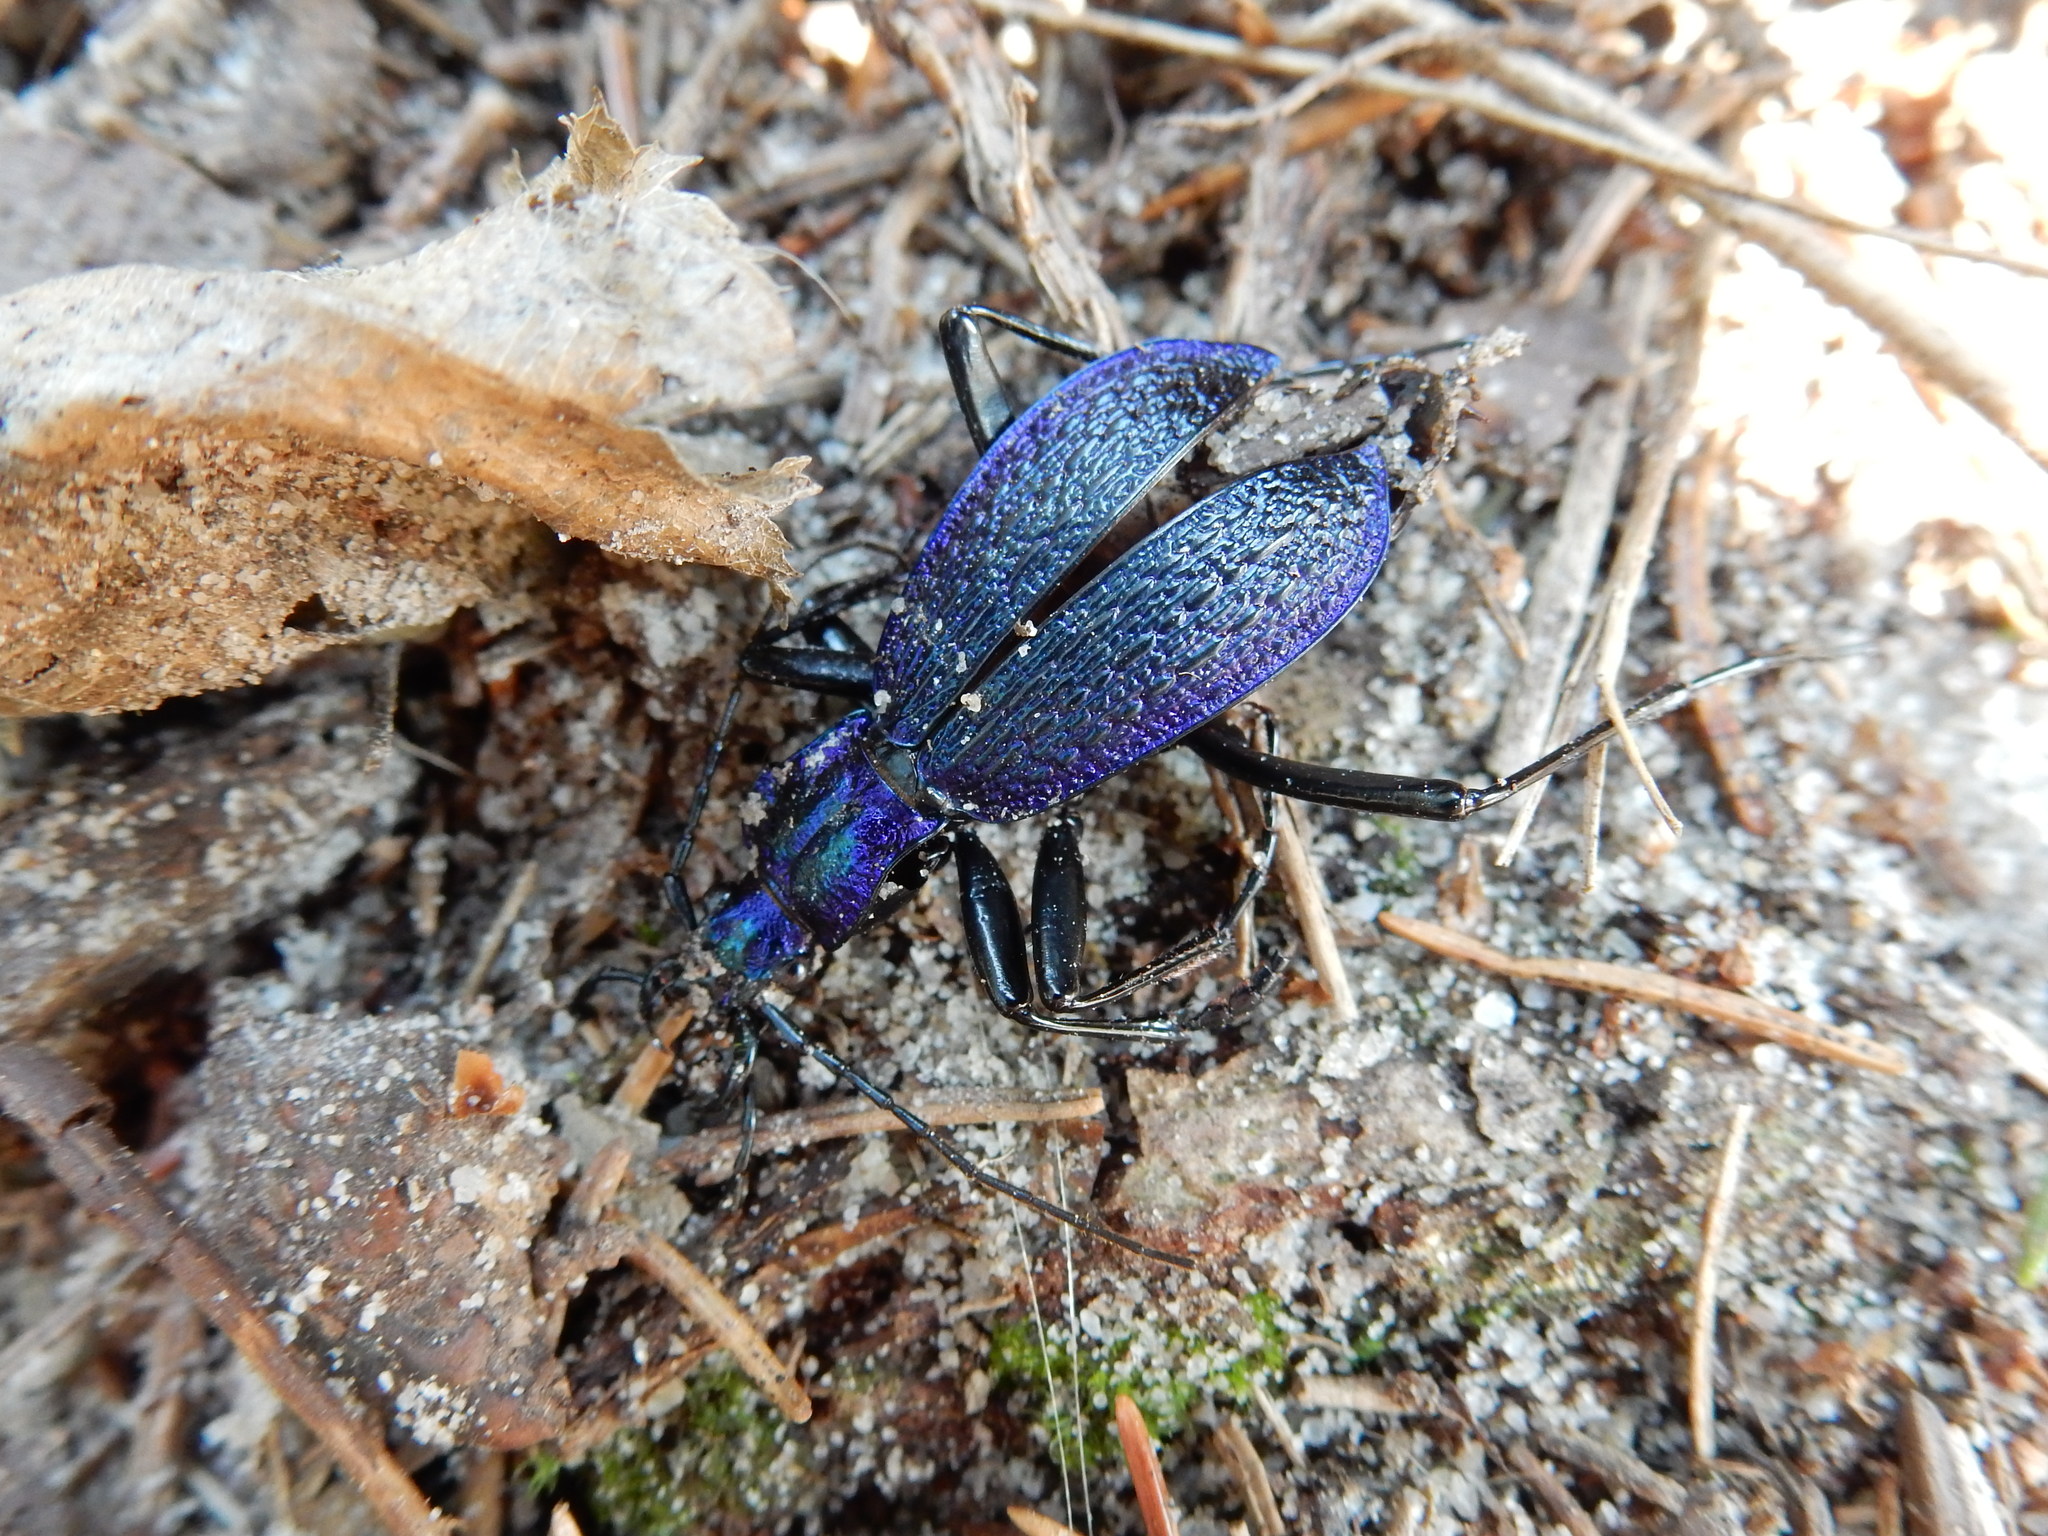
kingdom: Animalia
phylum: Arthropoda
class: Insecta
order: Coleoptera
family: Carabidae
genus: Carabus
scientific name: Carabus intricatus
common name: Blue ground beetle
